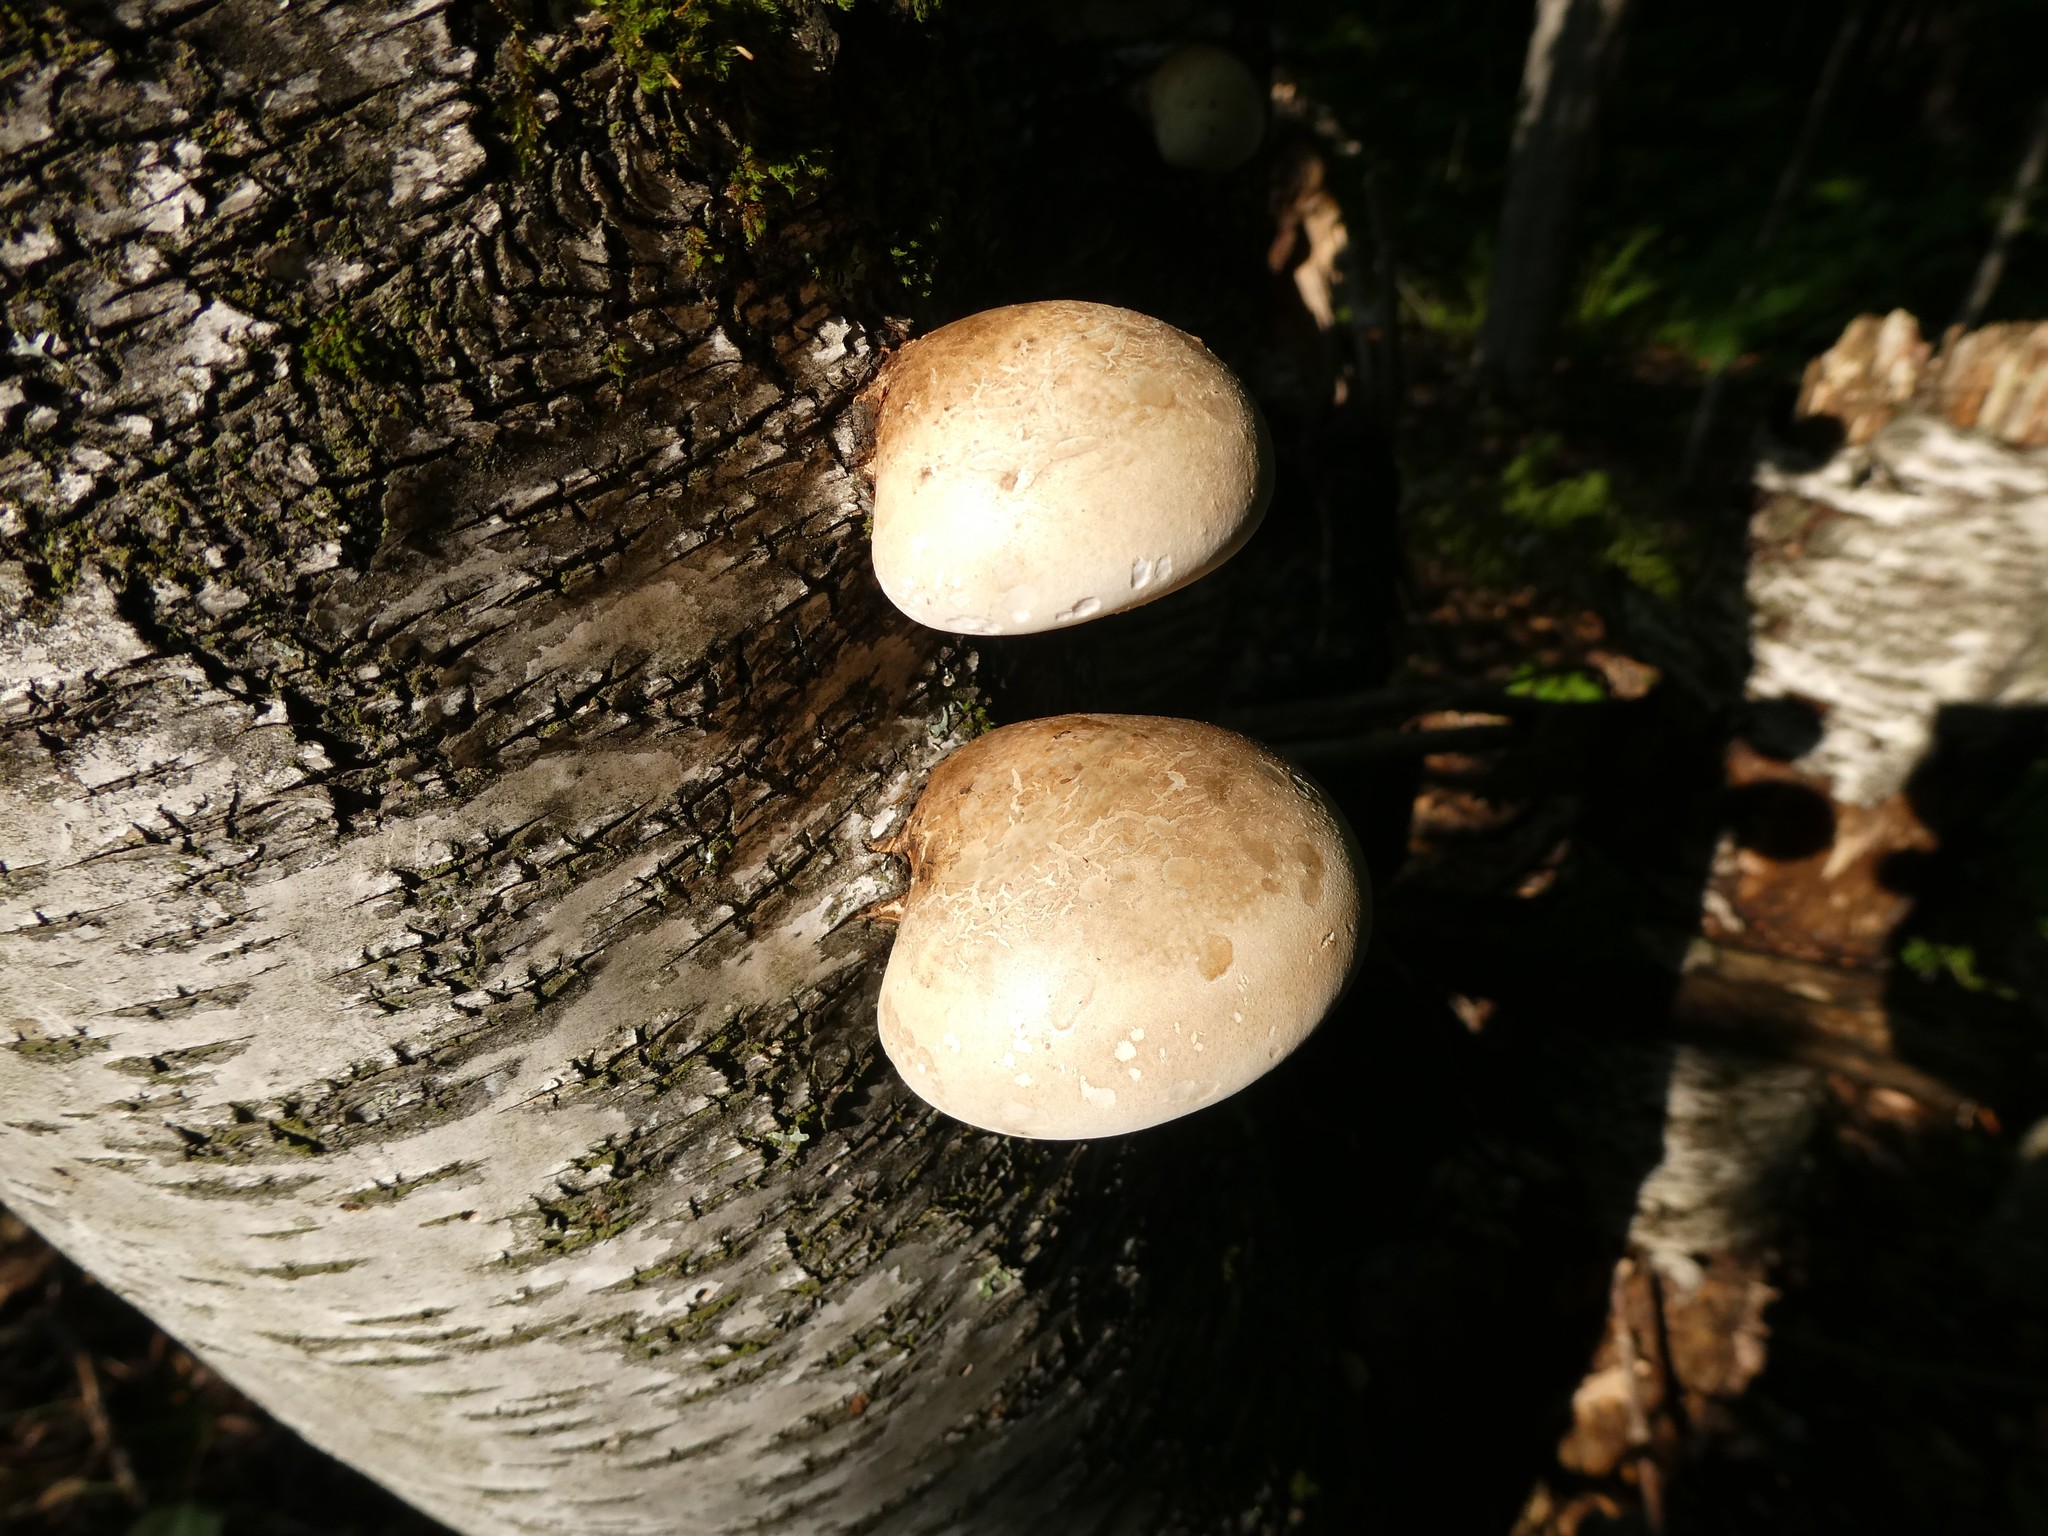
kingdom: Fungi
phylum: Basidiomycota
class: Agaricomycetes
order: Polyporales
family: Fomitopsidaceae
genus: Fomitopsis
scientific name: Fomitopsis betulina
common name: Birch polypore
